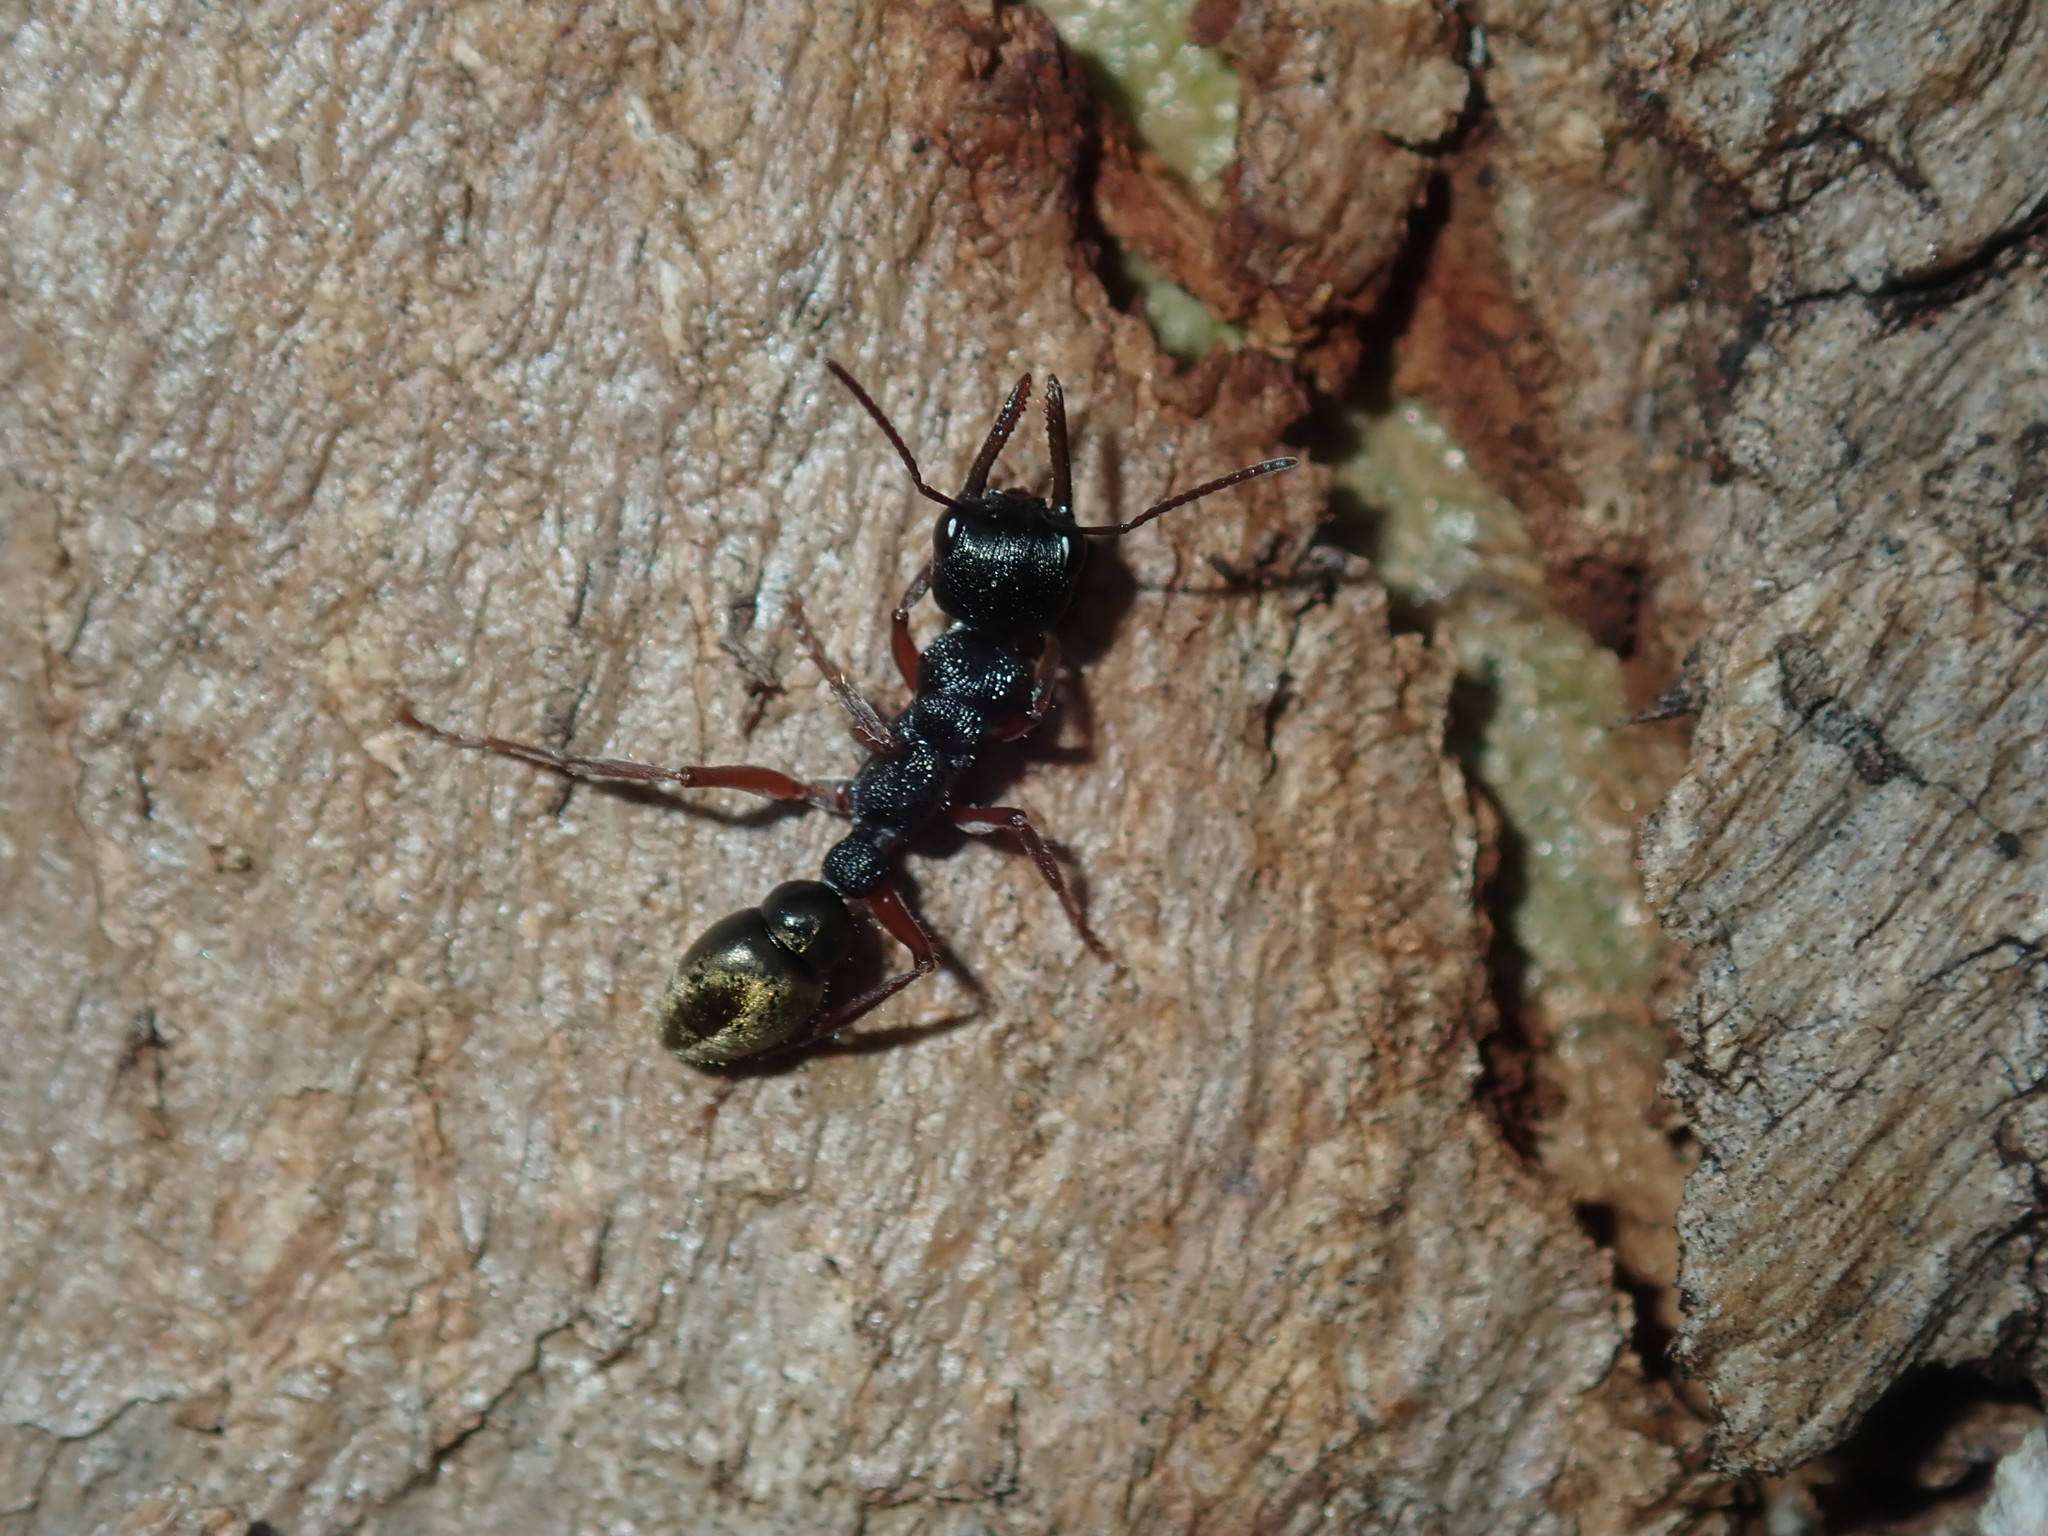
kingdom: Animalia
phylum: Arthropoda
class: Insecta
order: Hymenoptera
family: Formicidae
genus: Myrmecia
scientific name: Myrmecia fulvipes
